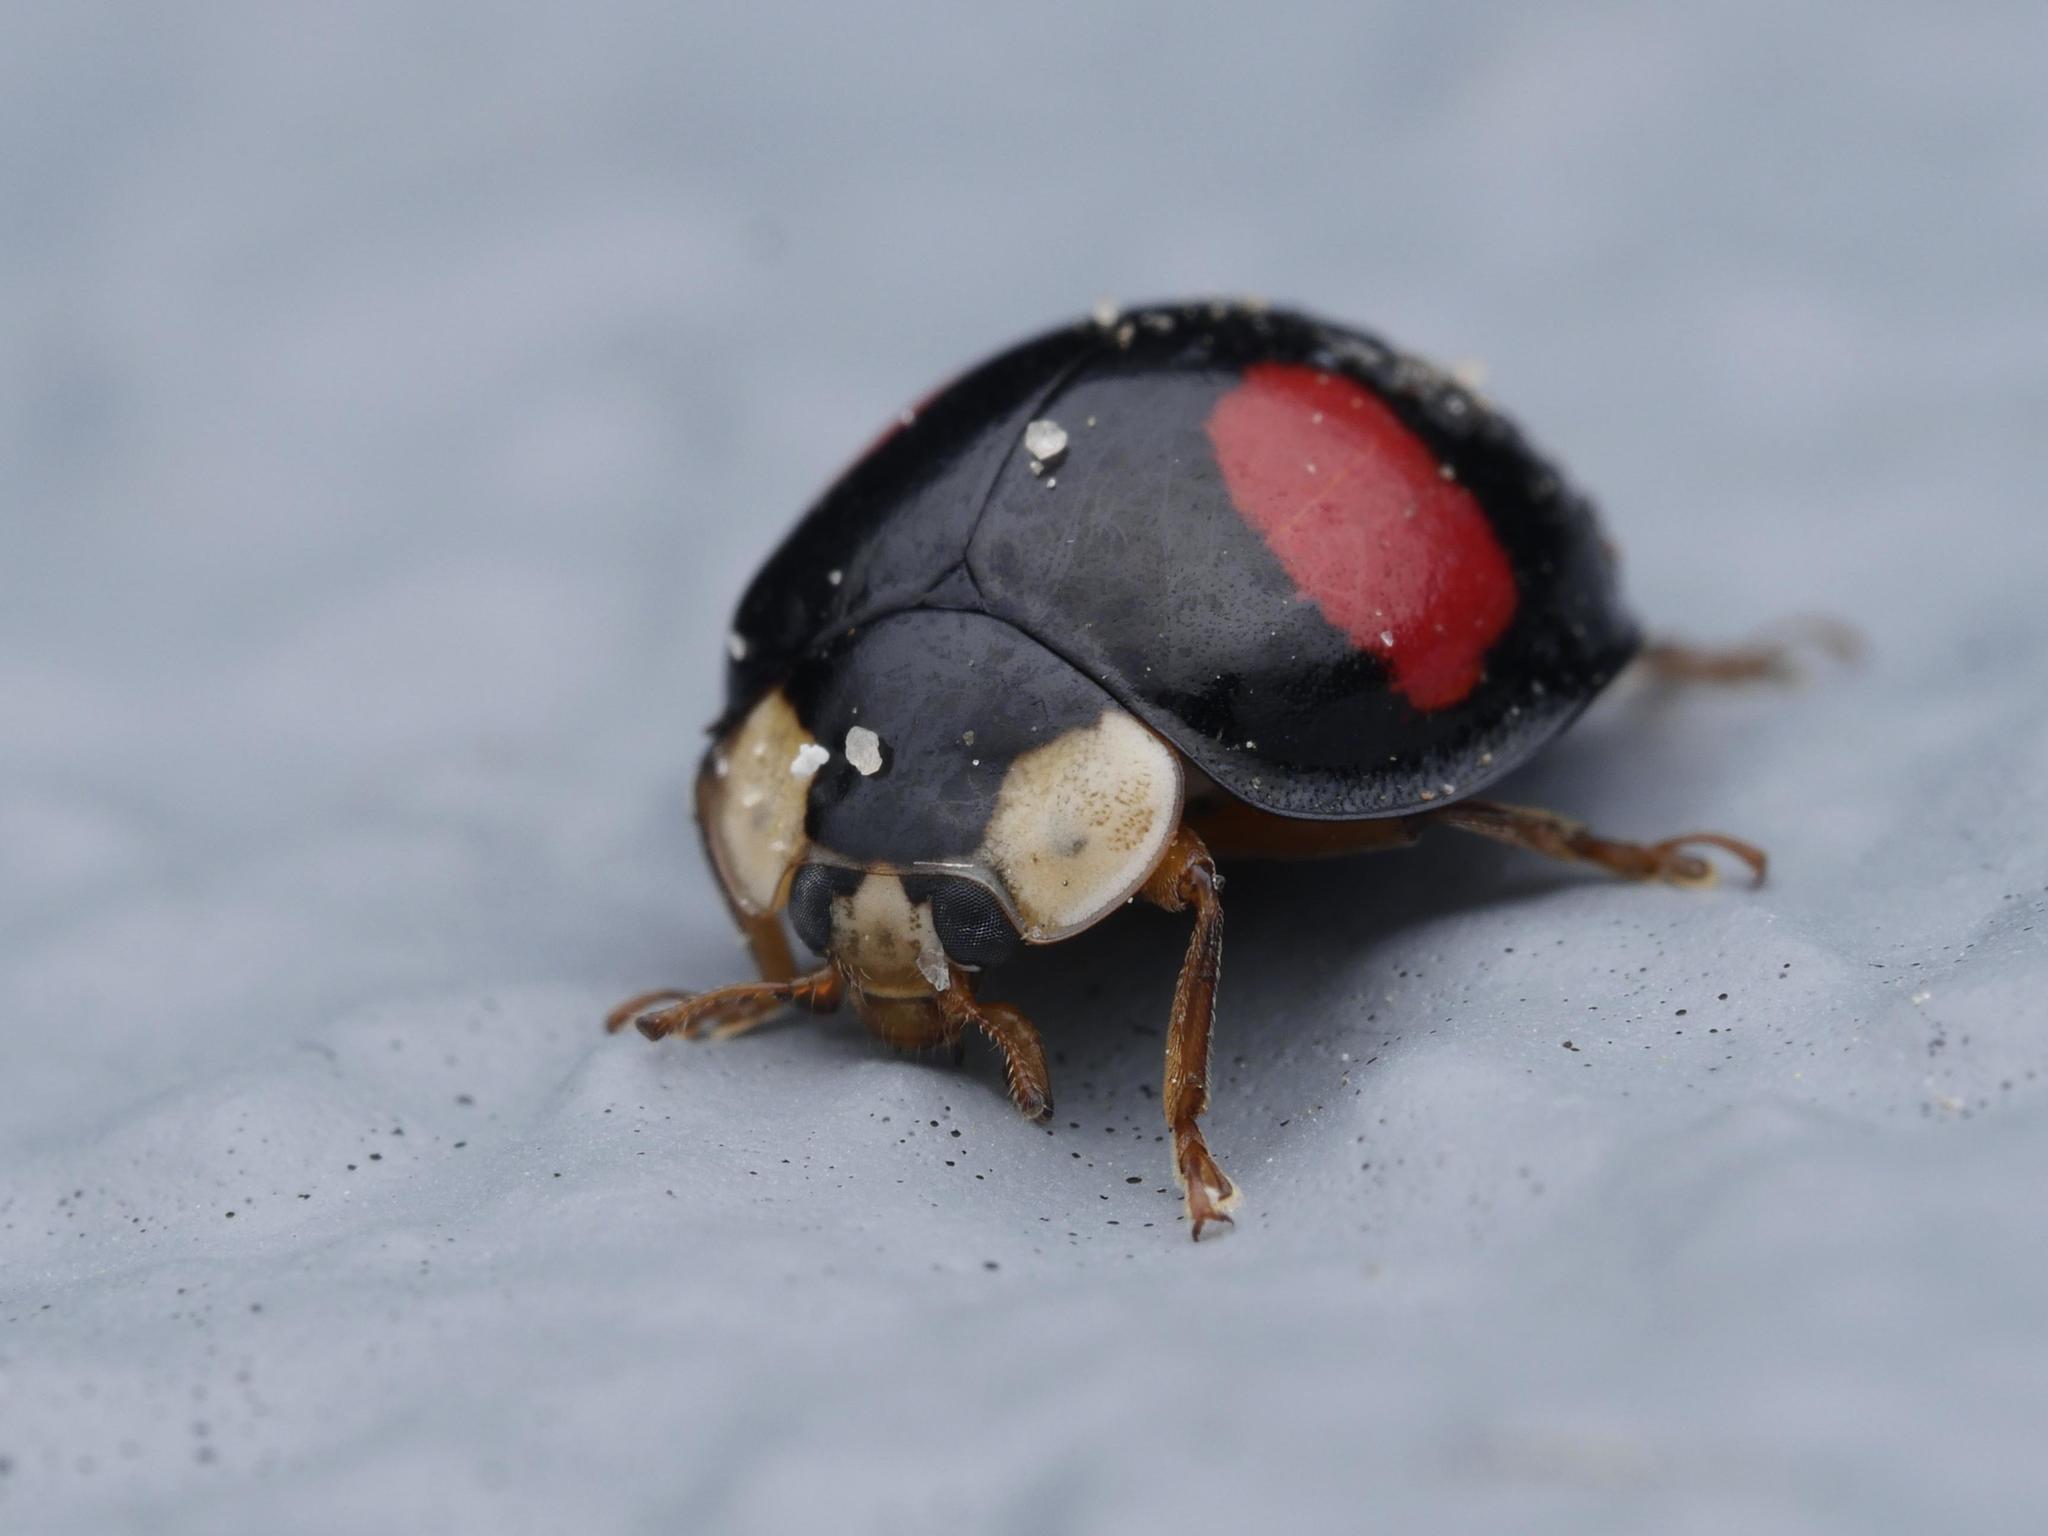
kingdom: Animalia
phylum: Arthropoda
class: Insecta
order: Coleoptera
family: Coccinellidae
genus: Harmonia
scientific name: Harmonia axyridis
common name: Harlequin ladybird
